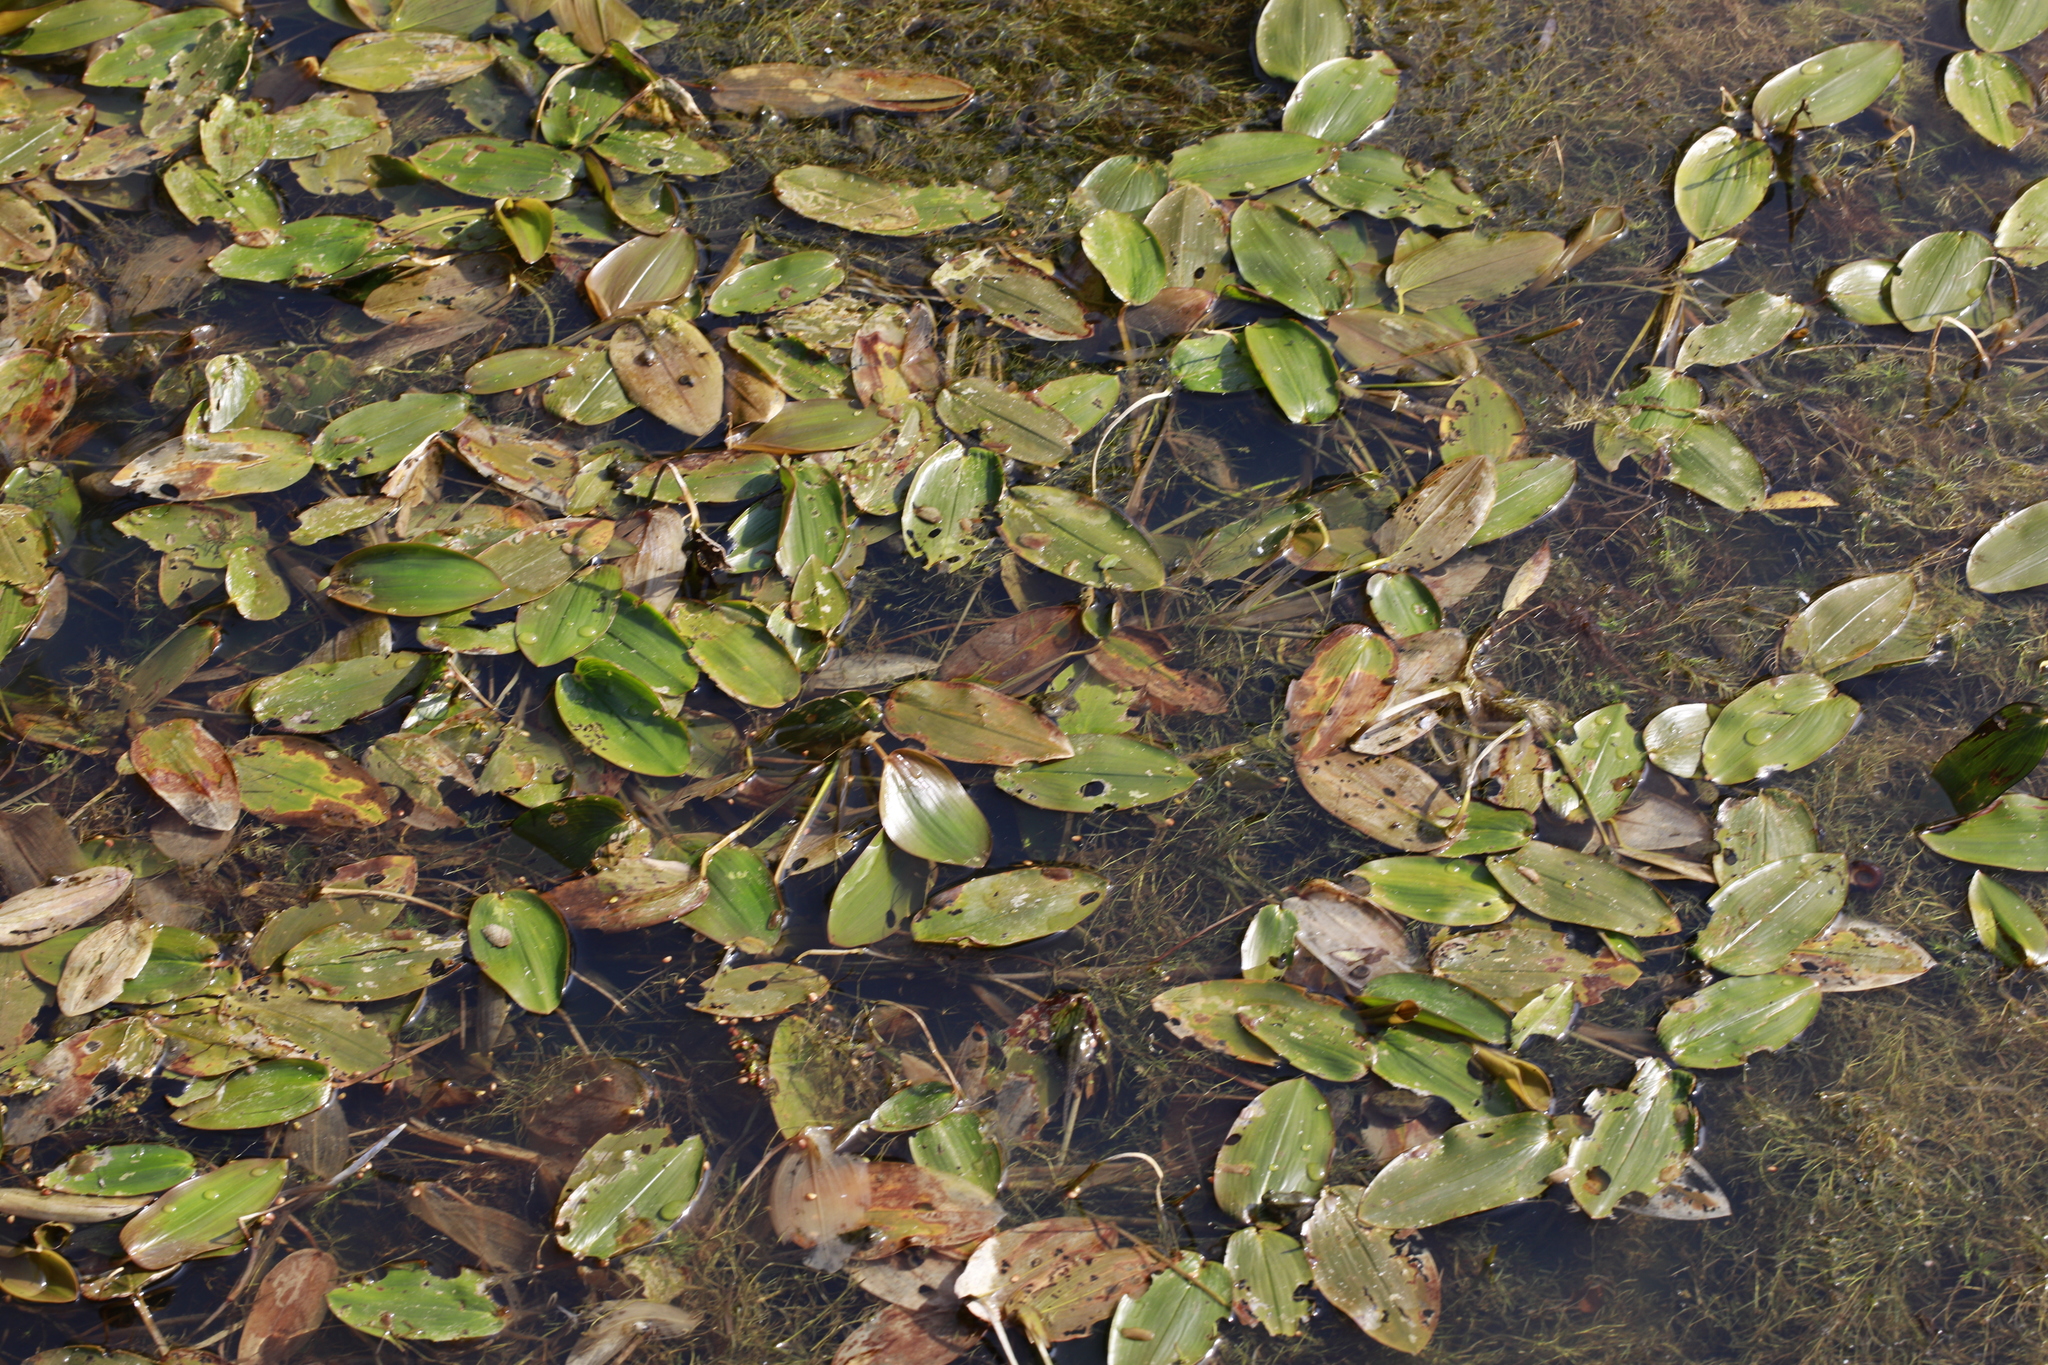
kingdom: Plantae
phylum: Tracheophyta
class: Liliopsida
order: Alismatales
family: Potamogetonaceae
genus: Potamogeton
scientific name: Potamogeton natans
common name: Broad-leaved pondweed
